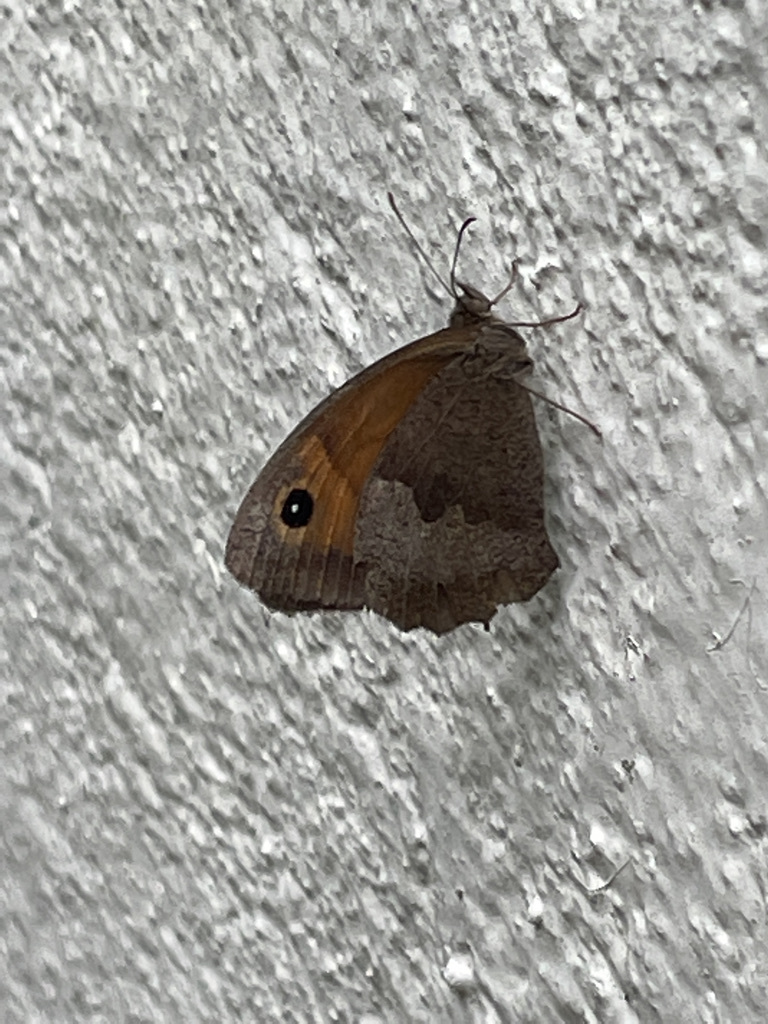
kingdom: Animalia
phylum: Arthropoda
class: Insecta
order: Lepidoptera
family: Nymphalidae
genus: Maniola
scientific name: Maniola jurtina
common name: Meadow brown
